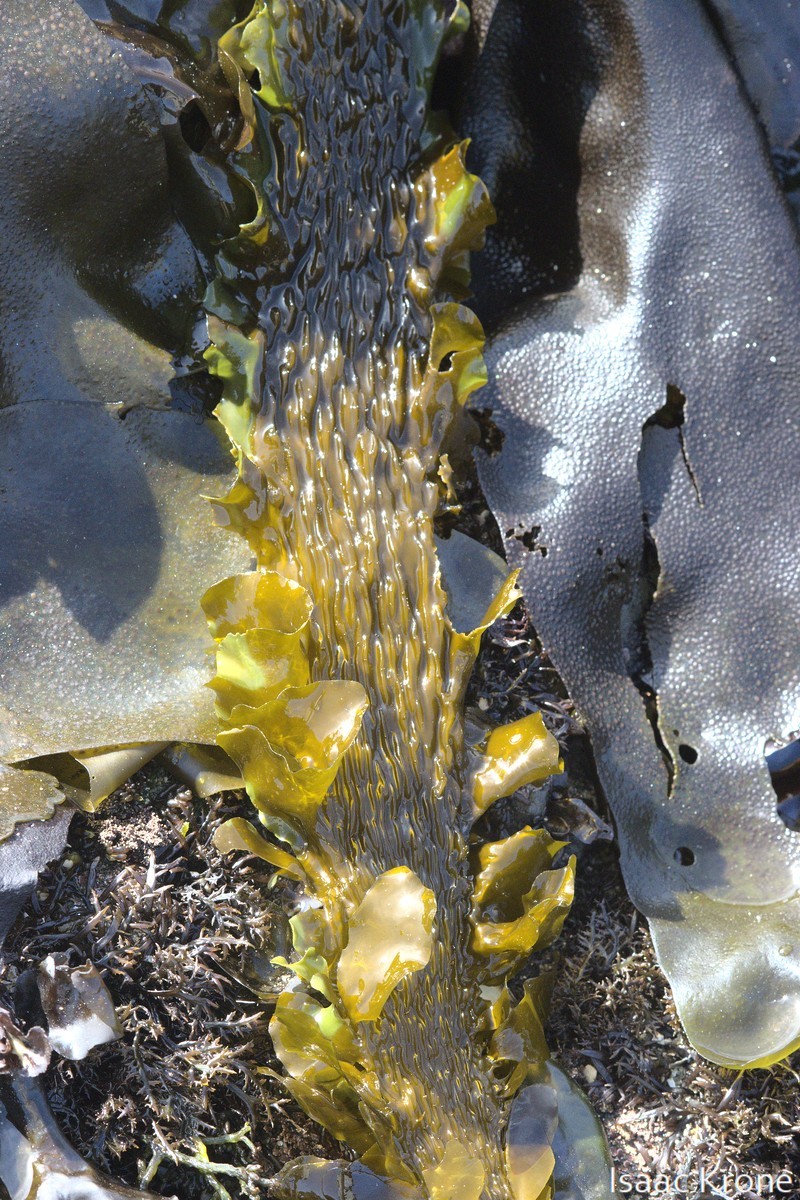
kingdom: Chromista
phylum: Ochrophyta
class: Phaeophyceae
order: Laminariales
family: Lessoniaceae
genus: Egregia
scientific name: Egregia menziesii
